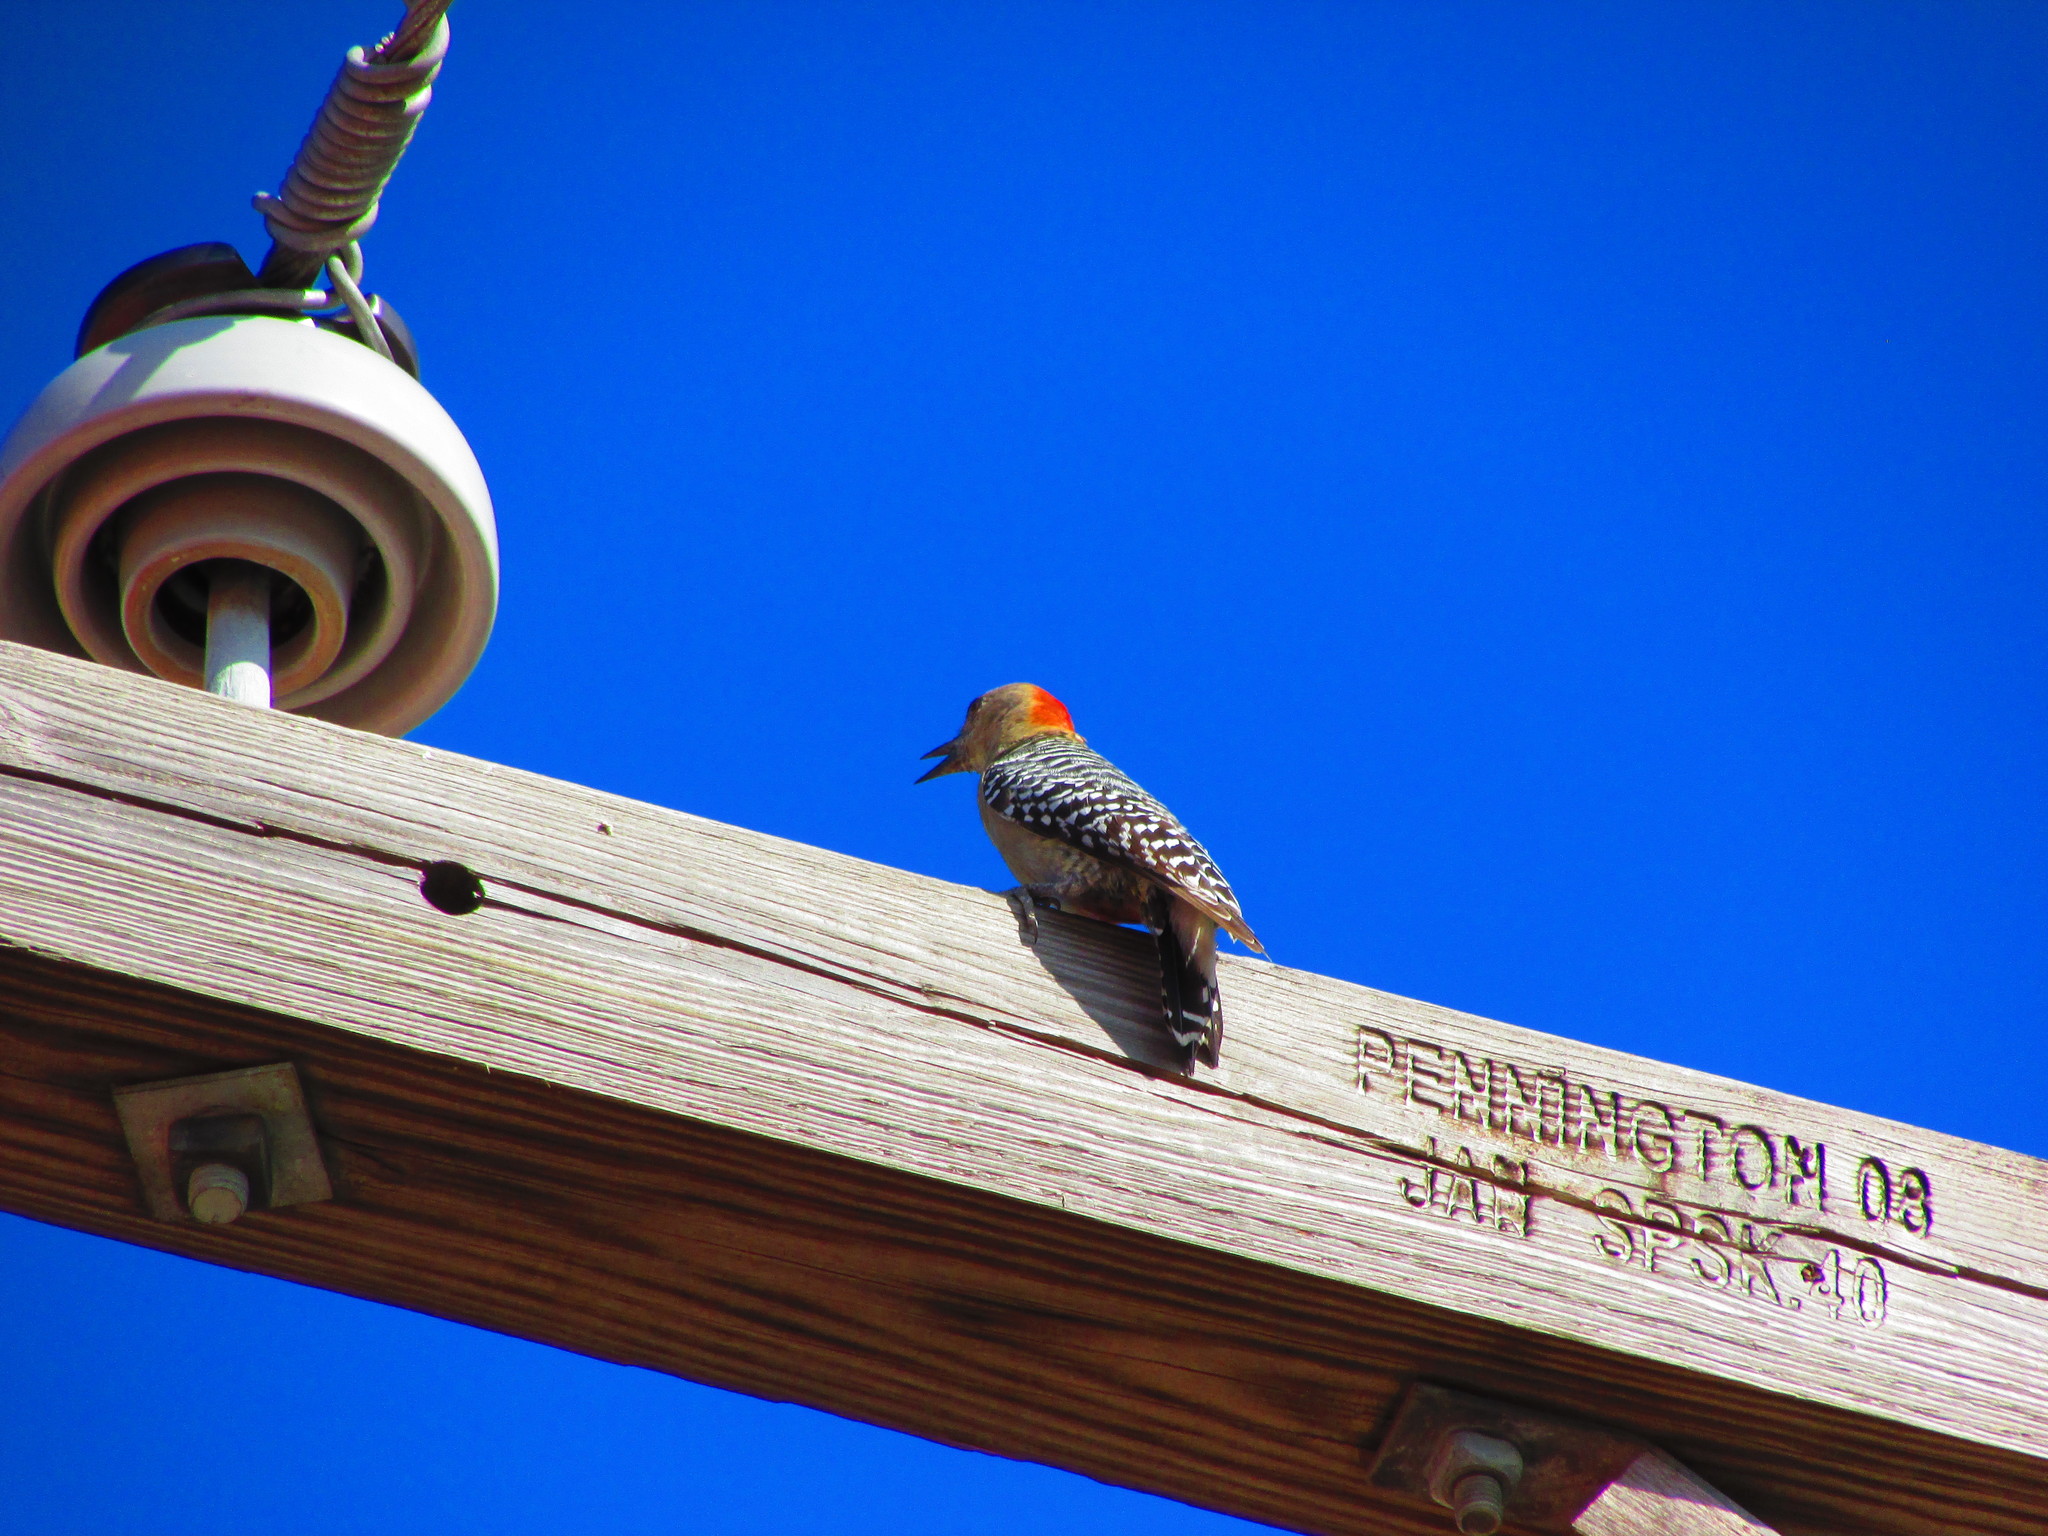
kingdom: Animalia
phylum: Chordata
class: Aves
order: Piciformes
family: Picidae
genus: Melanerpes
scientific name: Melanerpes rubricapillus
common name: Red-crowned woodpecker
